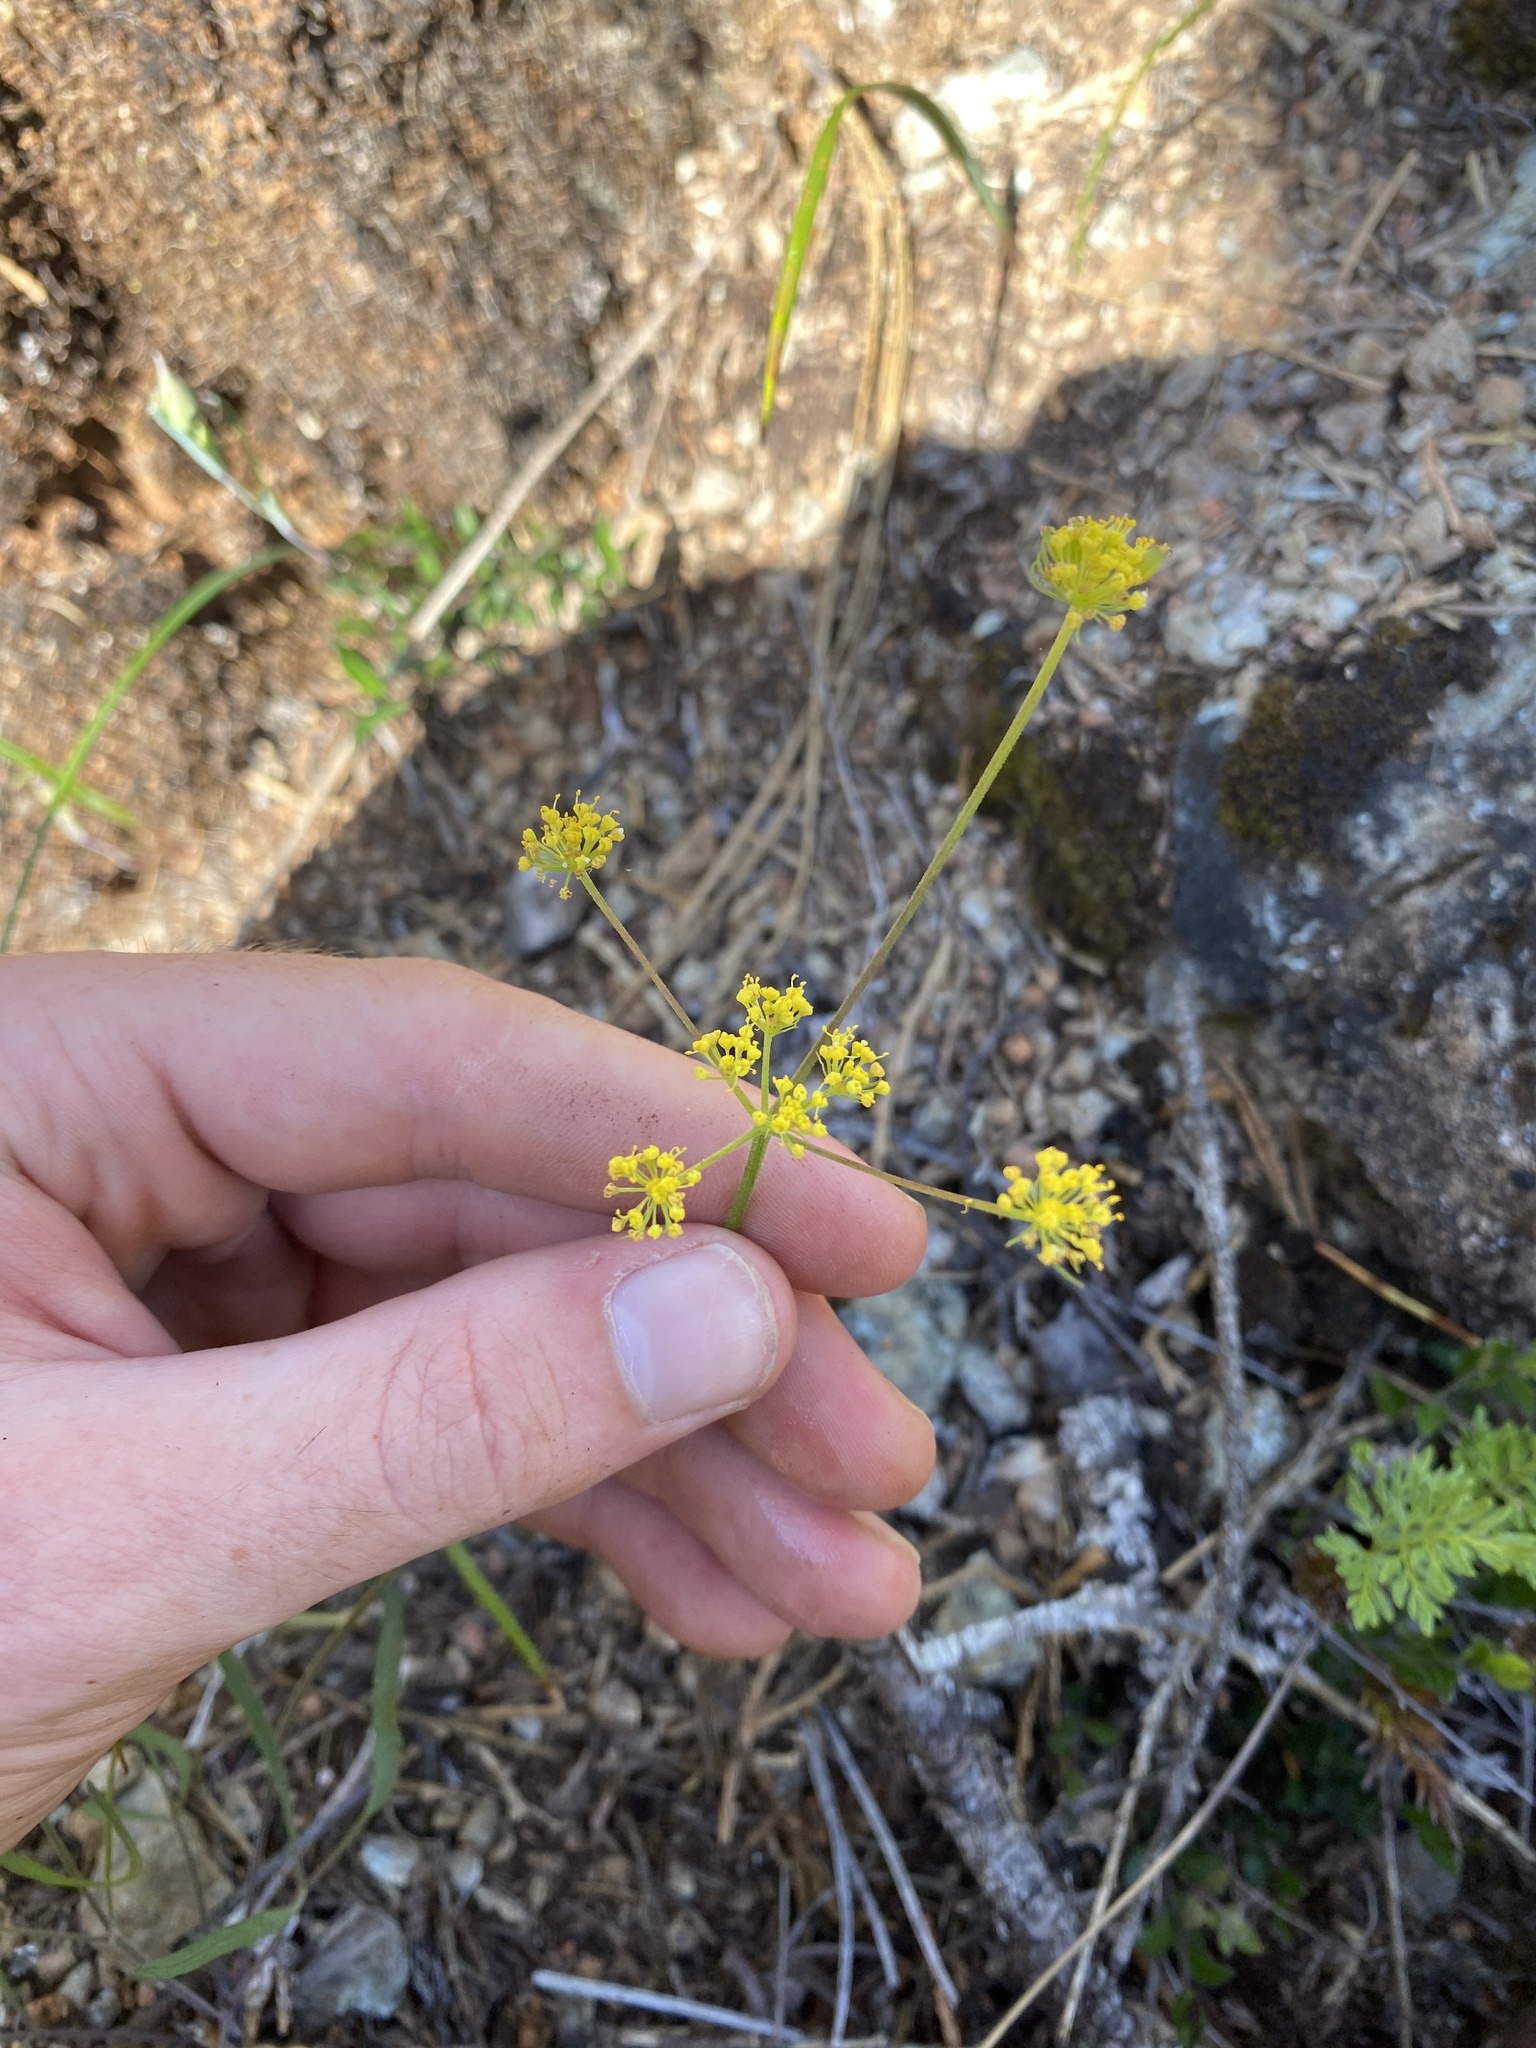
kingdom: Plantae
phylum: Tracheophyta
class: Magnoliopsida
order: Apiales
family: Apiaceae
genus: Lomatium
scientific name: Lomatium triternatum
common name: Ternate lomatium
